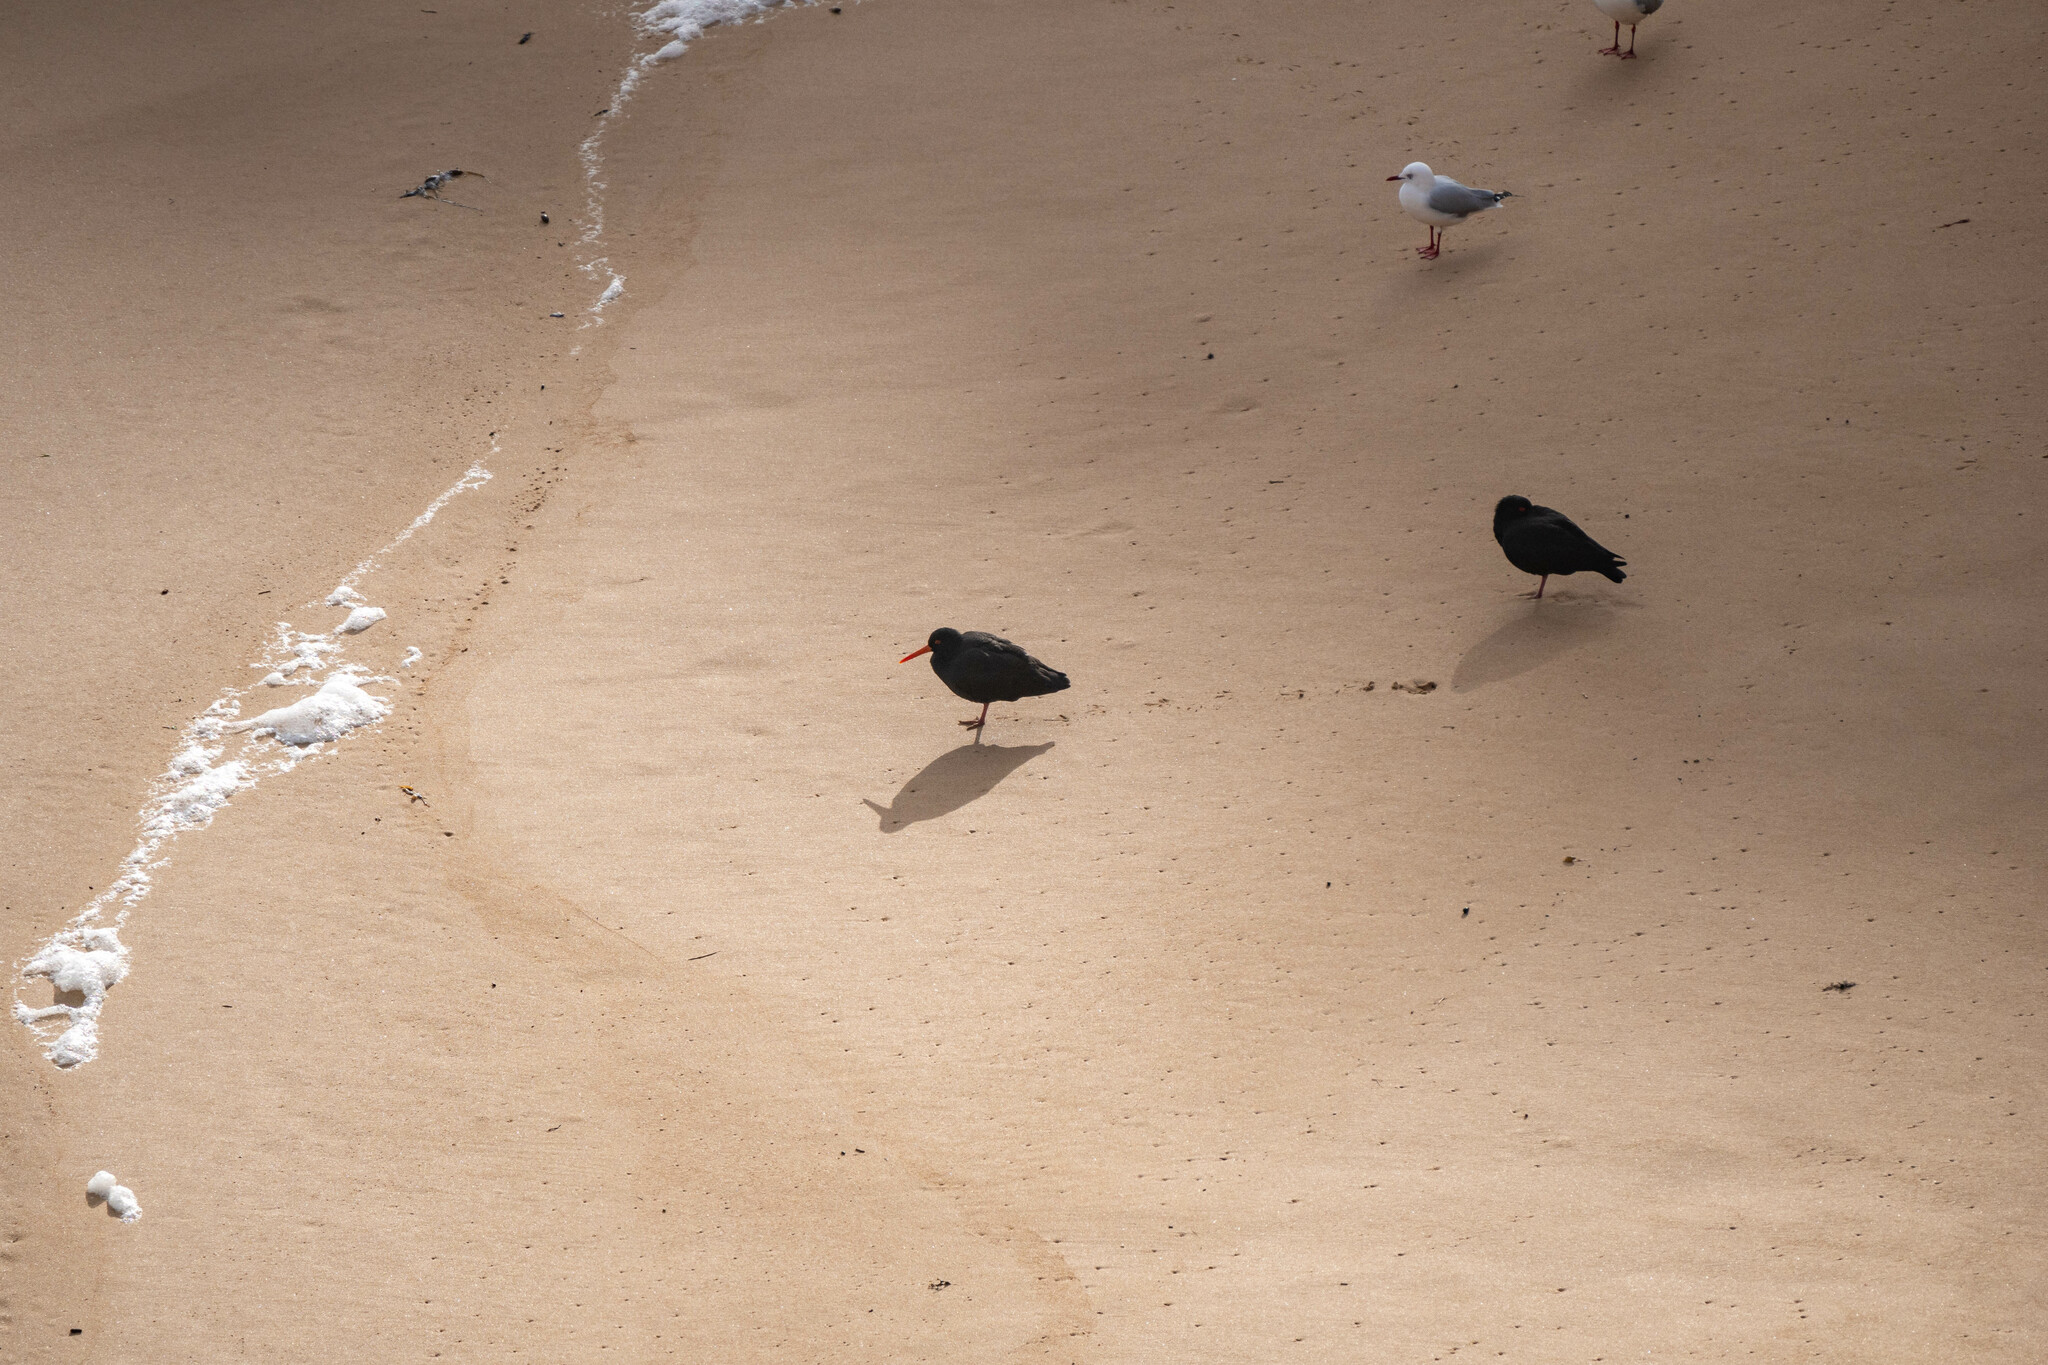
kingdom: Animalia
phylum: Chordata
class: Aves
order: Charadriiformes
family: Haematopodidae
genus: Haematopus
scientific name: Haematopus fuliginosus
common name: Sooty oystercatcher
